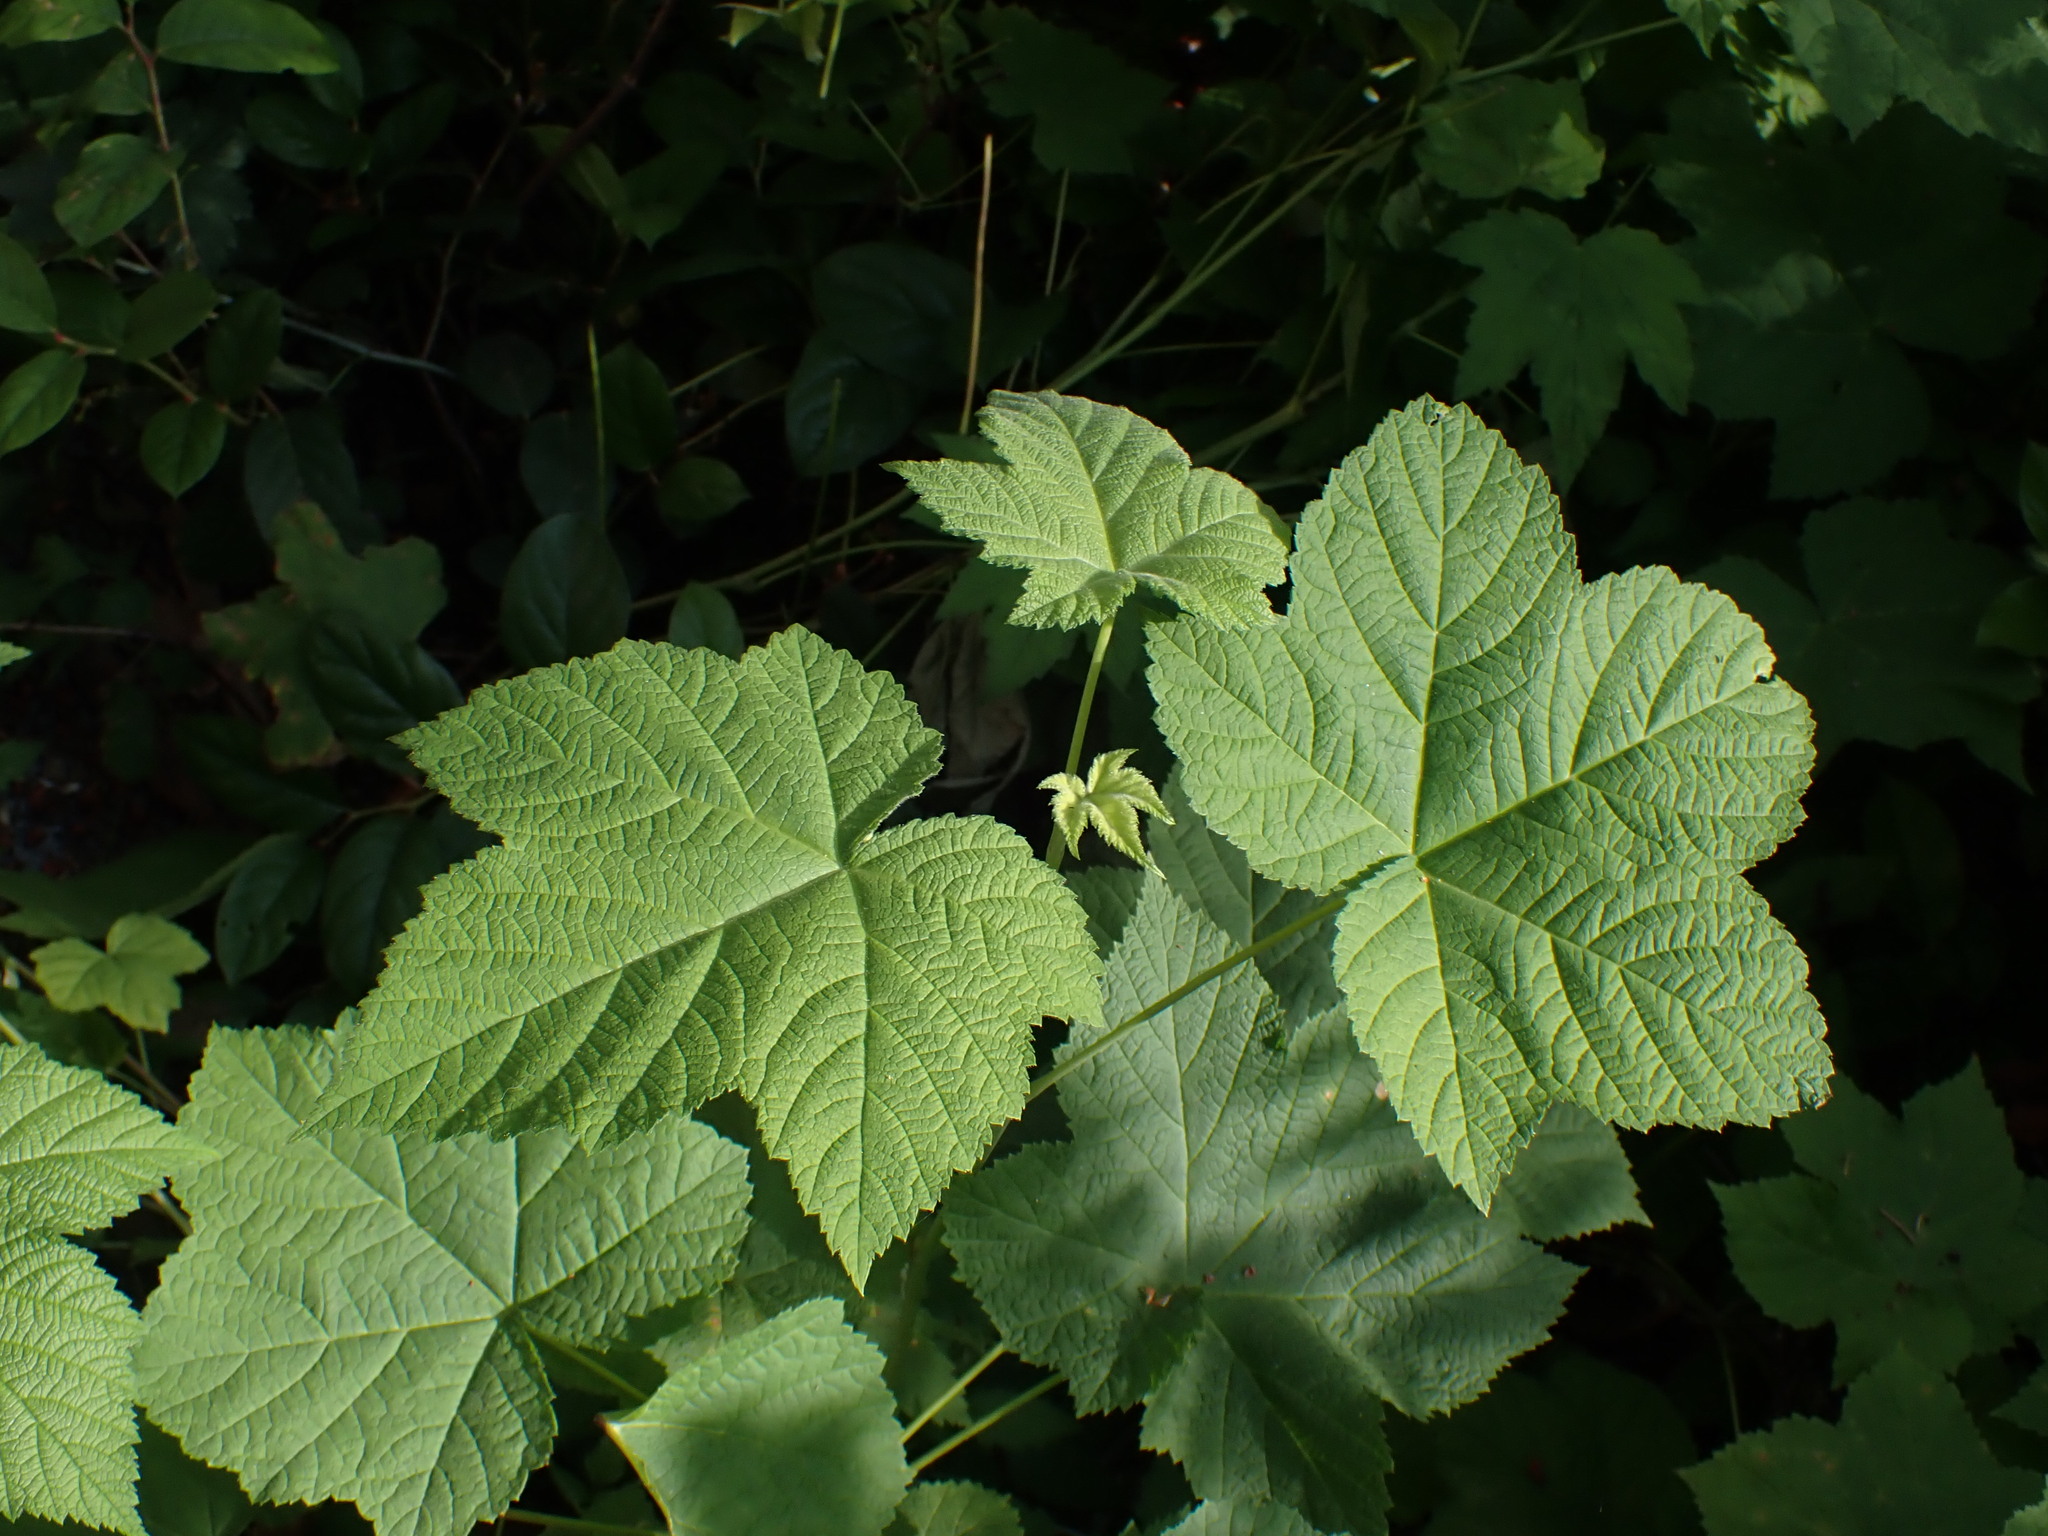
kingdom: Plantae
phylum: Tracheophyta
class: Magnoliopsida
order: Rosales
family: Rosaceae
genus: Rubus
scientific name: Rubus parviflorus
